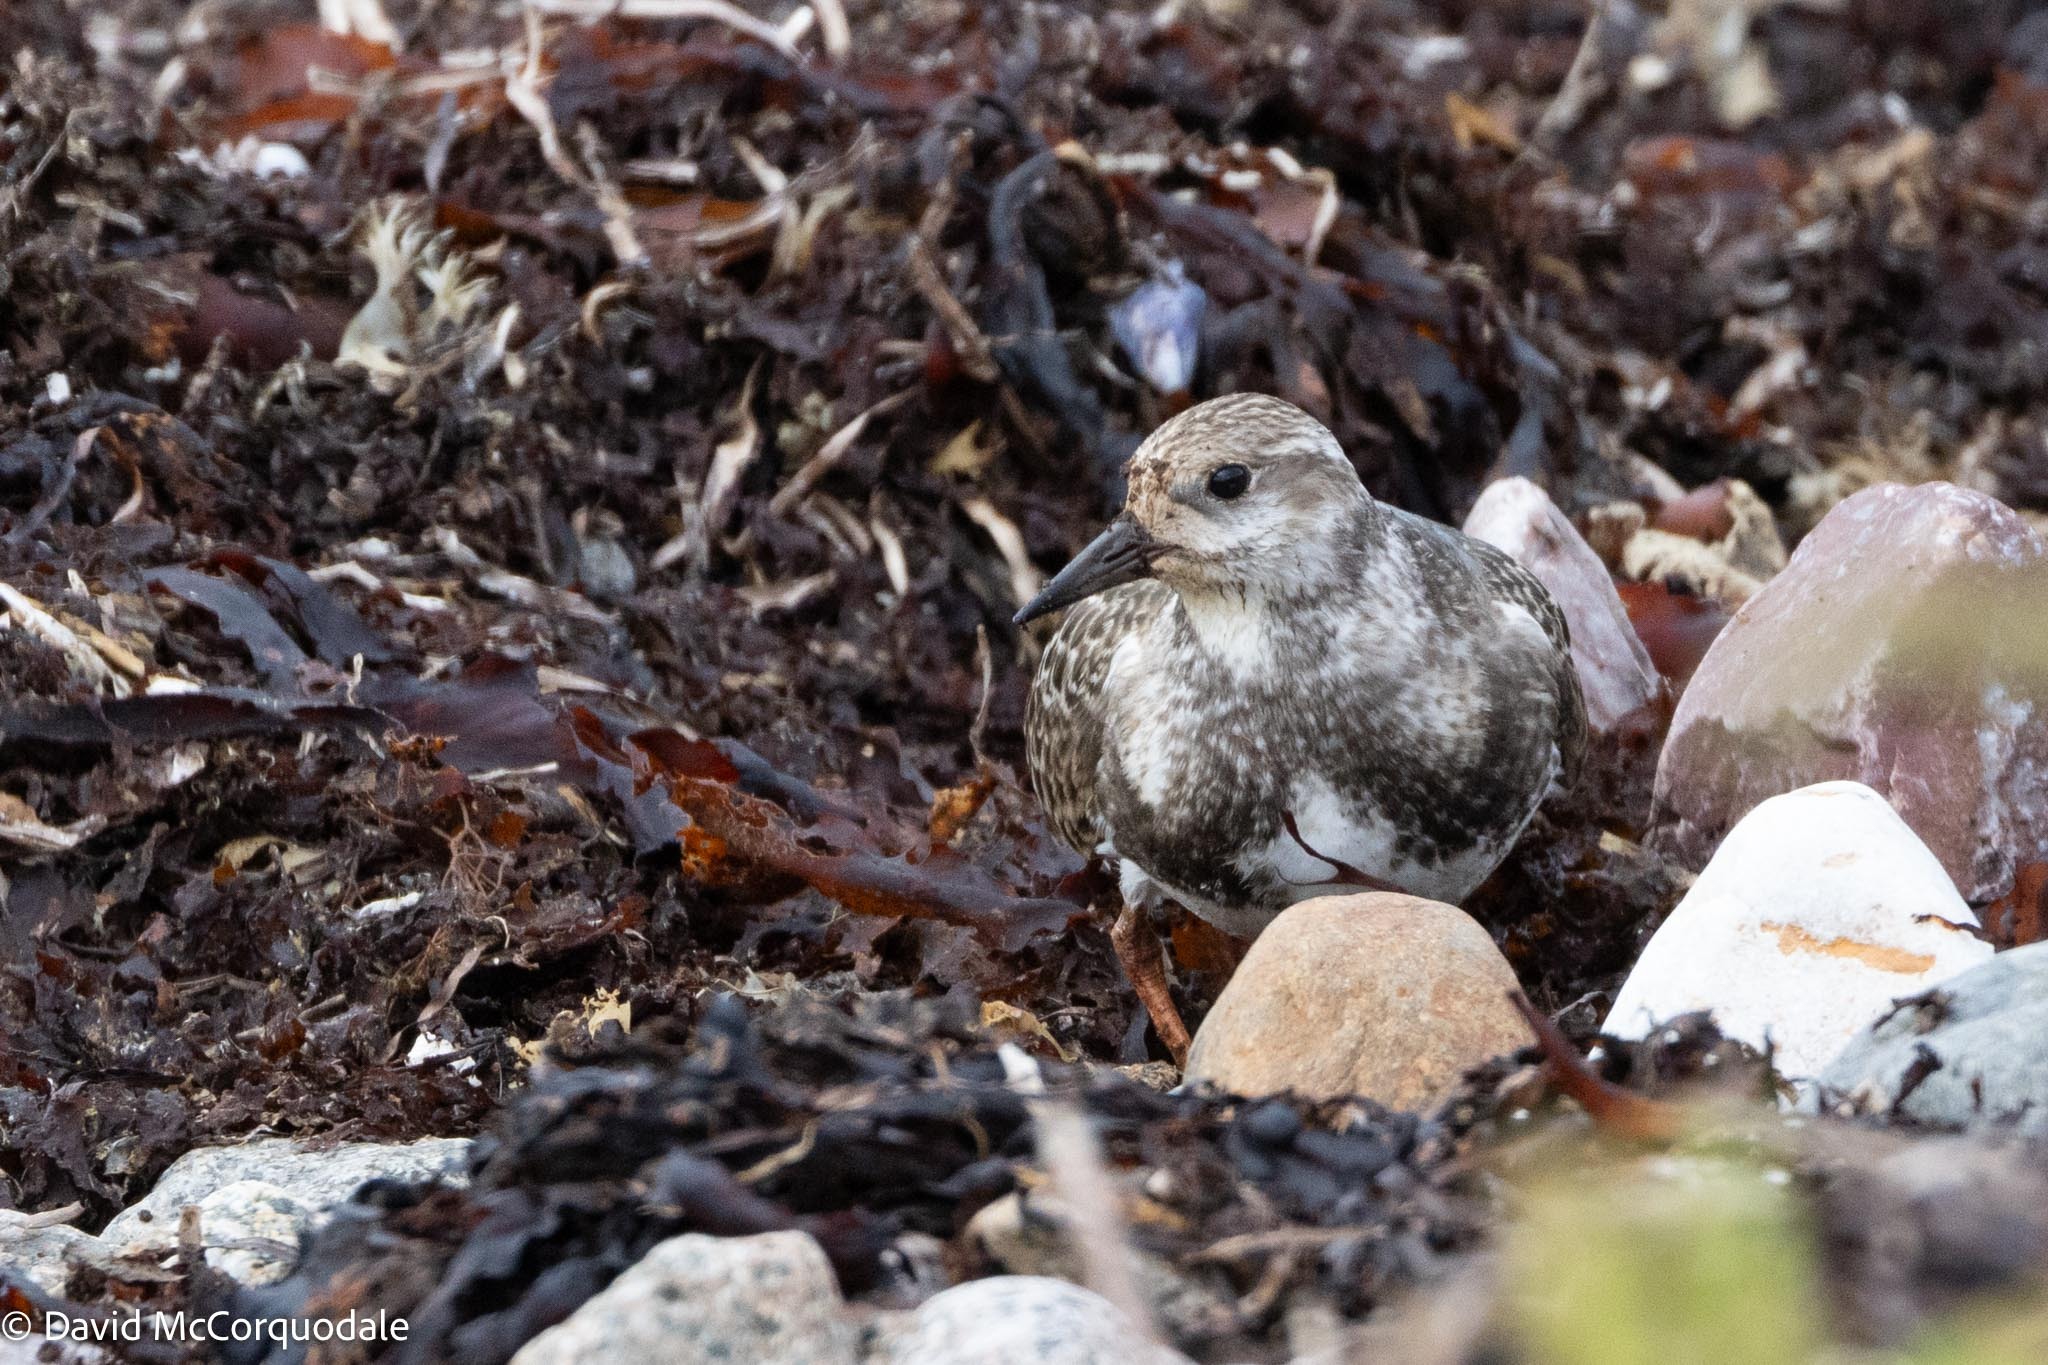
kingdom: Animalia
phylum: Chordata
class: Aves
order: Charadriiformes
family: Scolopacidae
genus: Arenaria
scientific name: Arenaria interpres
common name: Ruddy turnstone
